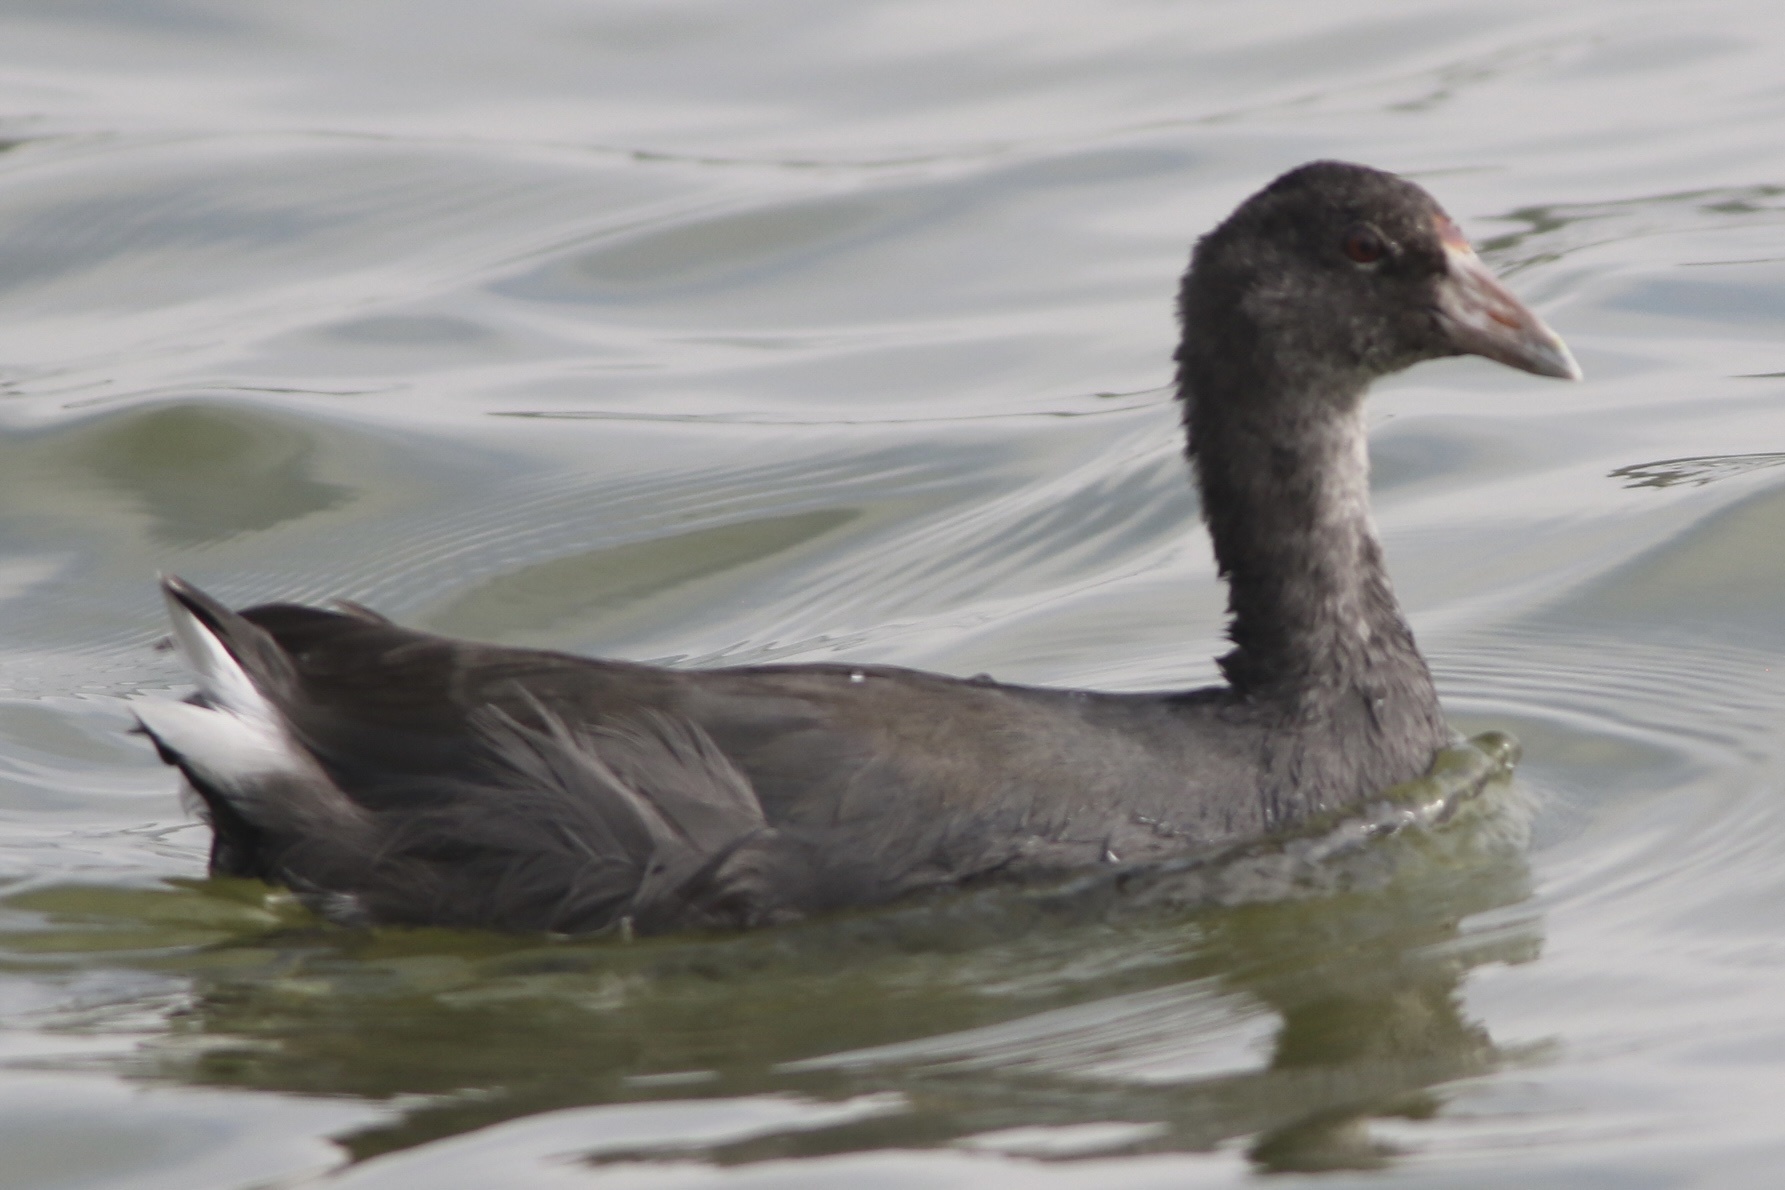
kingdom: Animalia
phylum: Chordata
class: Aves
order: Gruiformes
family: Rallidae
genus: Fulica
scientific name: Fulica americana
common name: American coot
